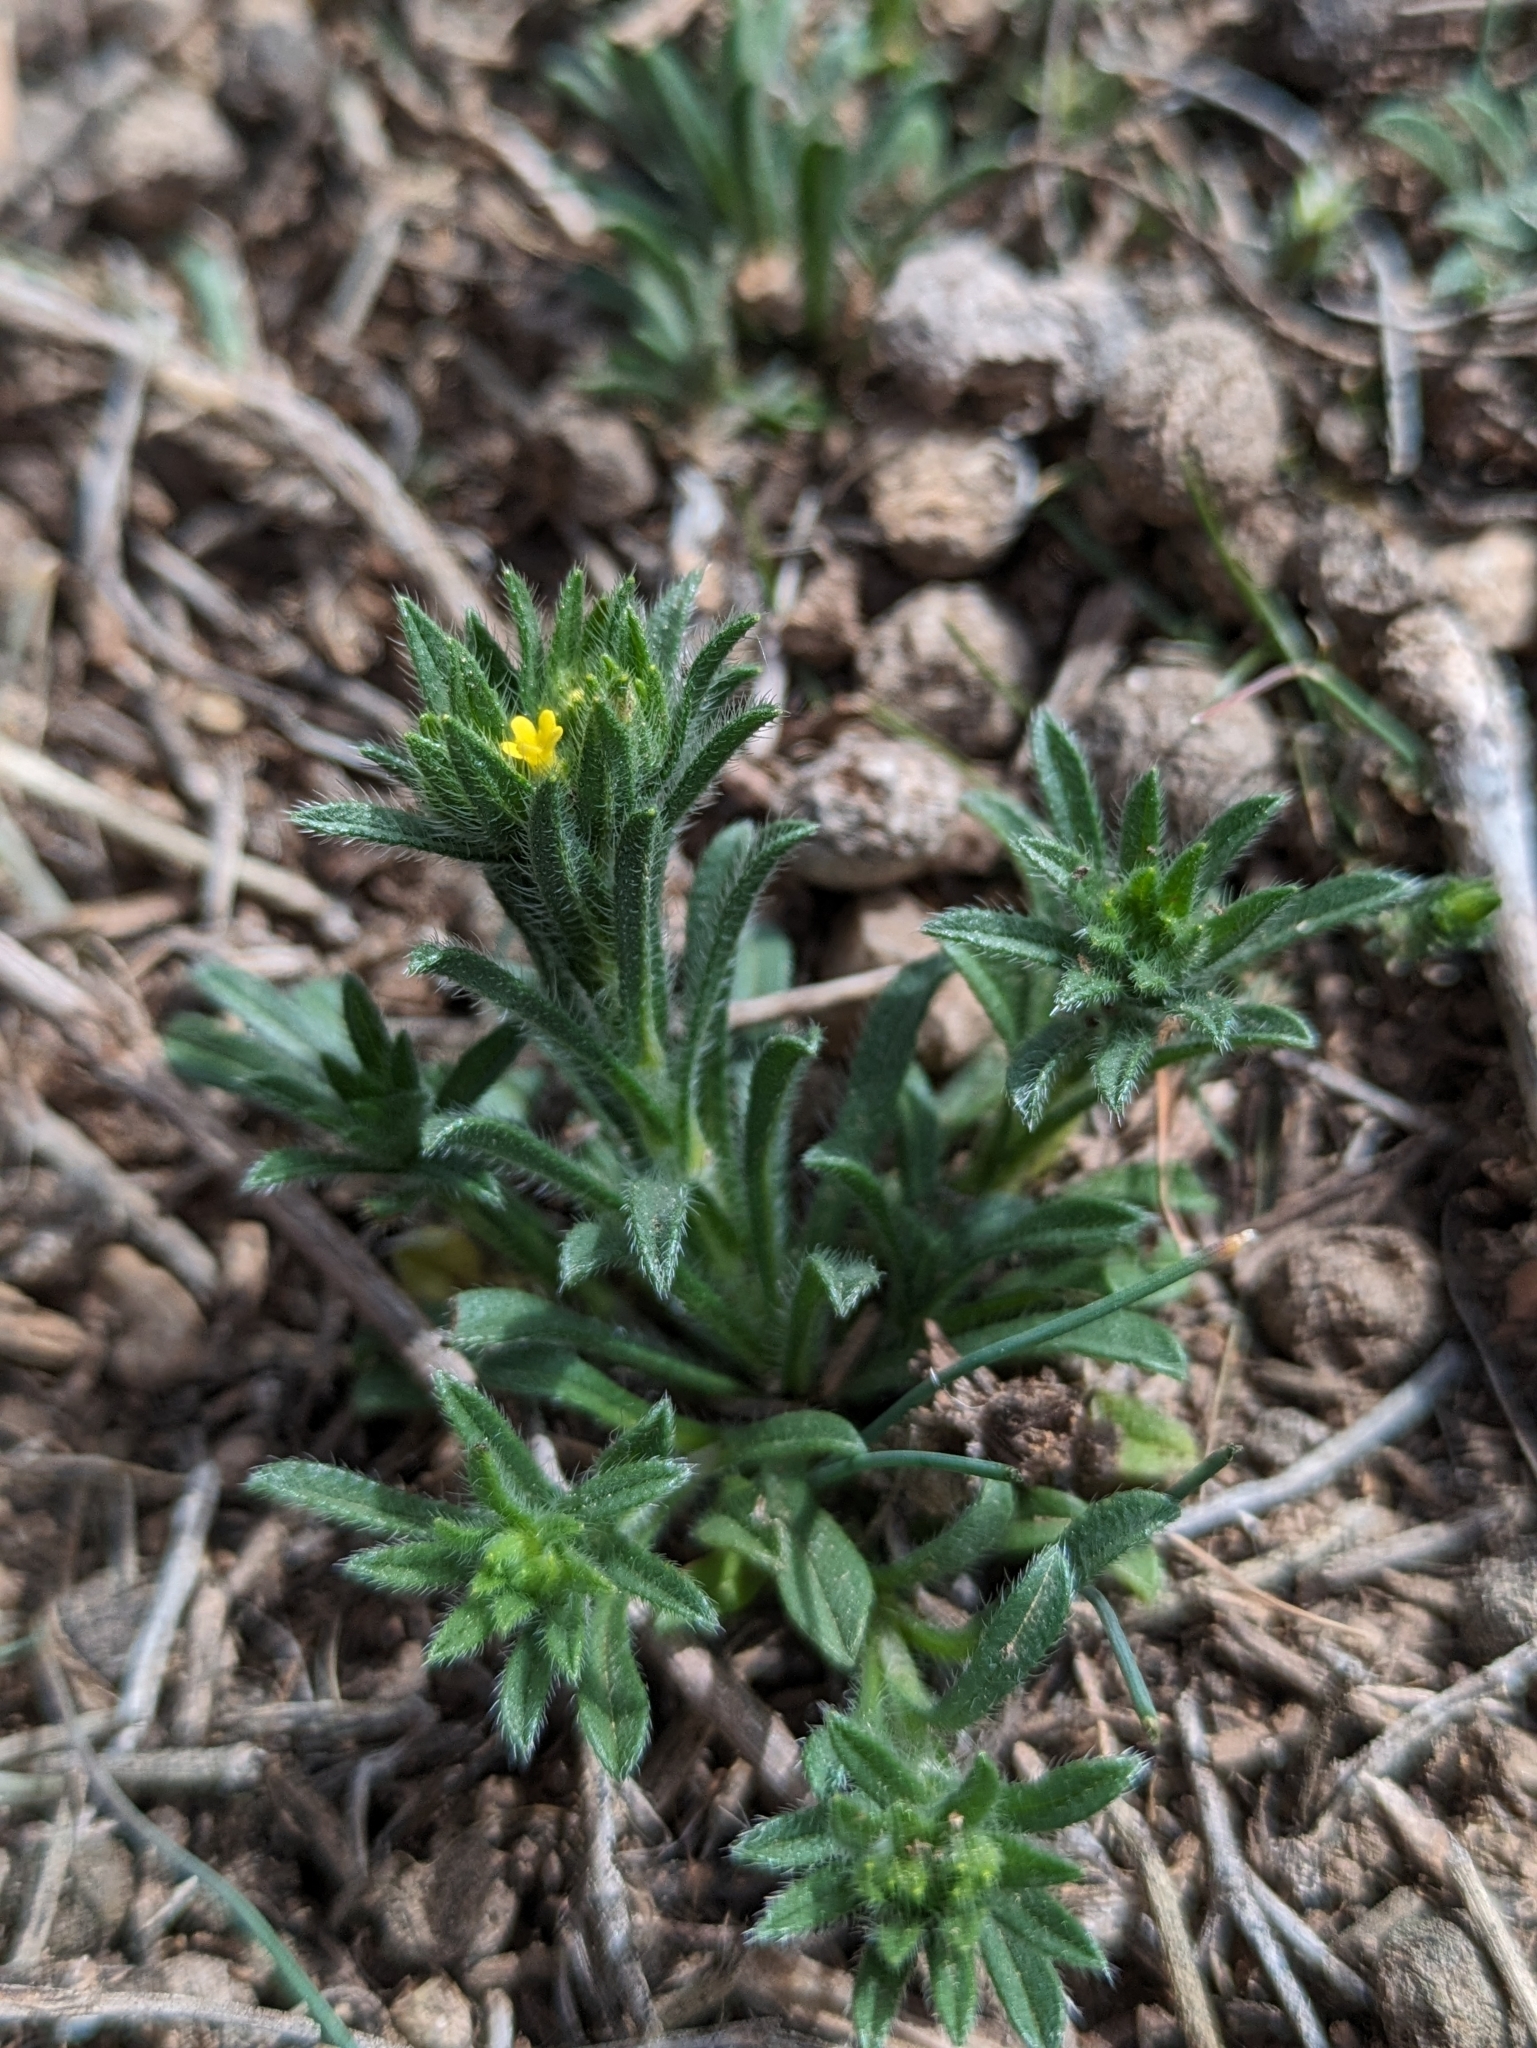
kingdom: Plantae
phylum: Tracheophyta
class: Magnoliopsida
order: Boraginales
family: Boraginaceae
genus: Neatostema
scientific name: Neatostema apulum
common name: Hairy sheepweed
